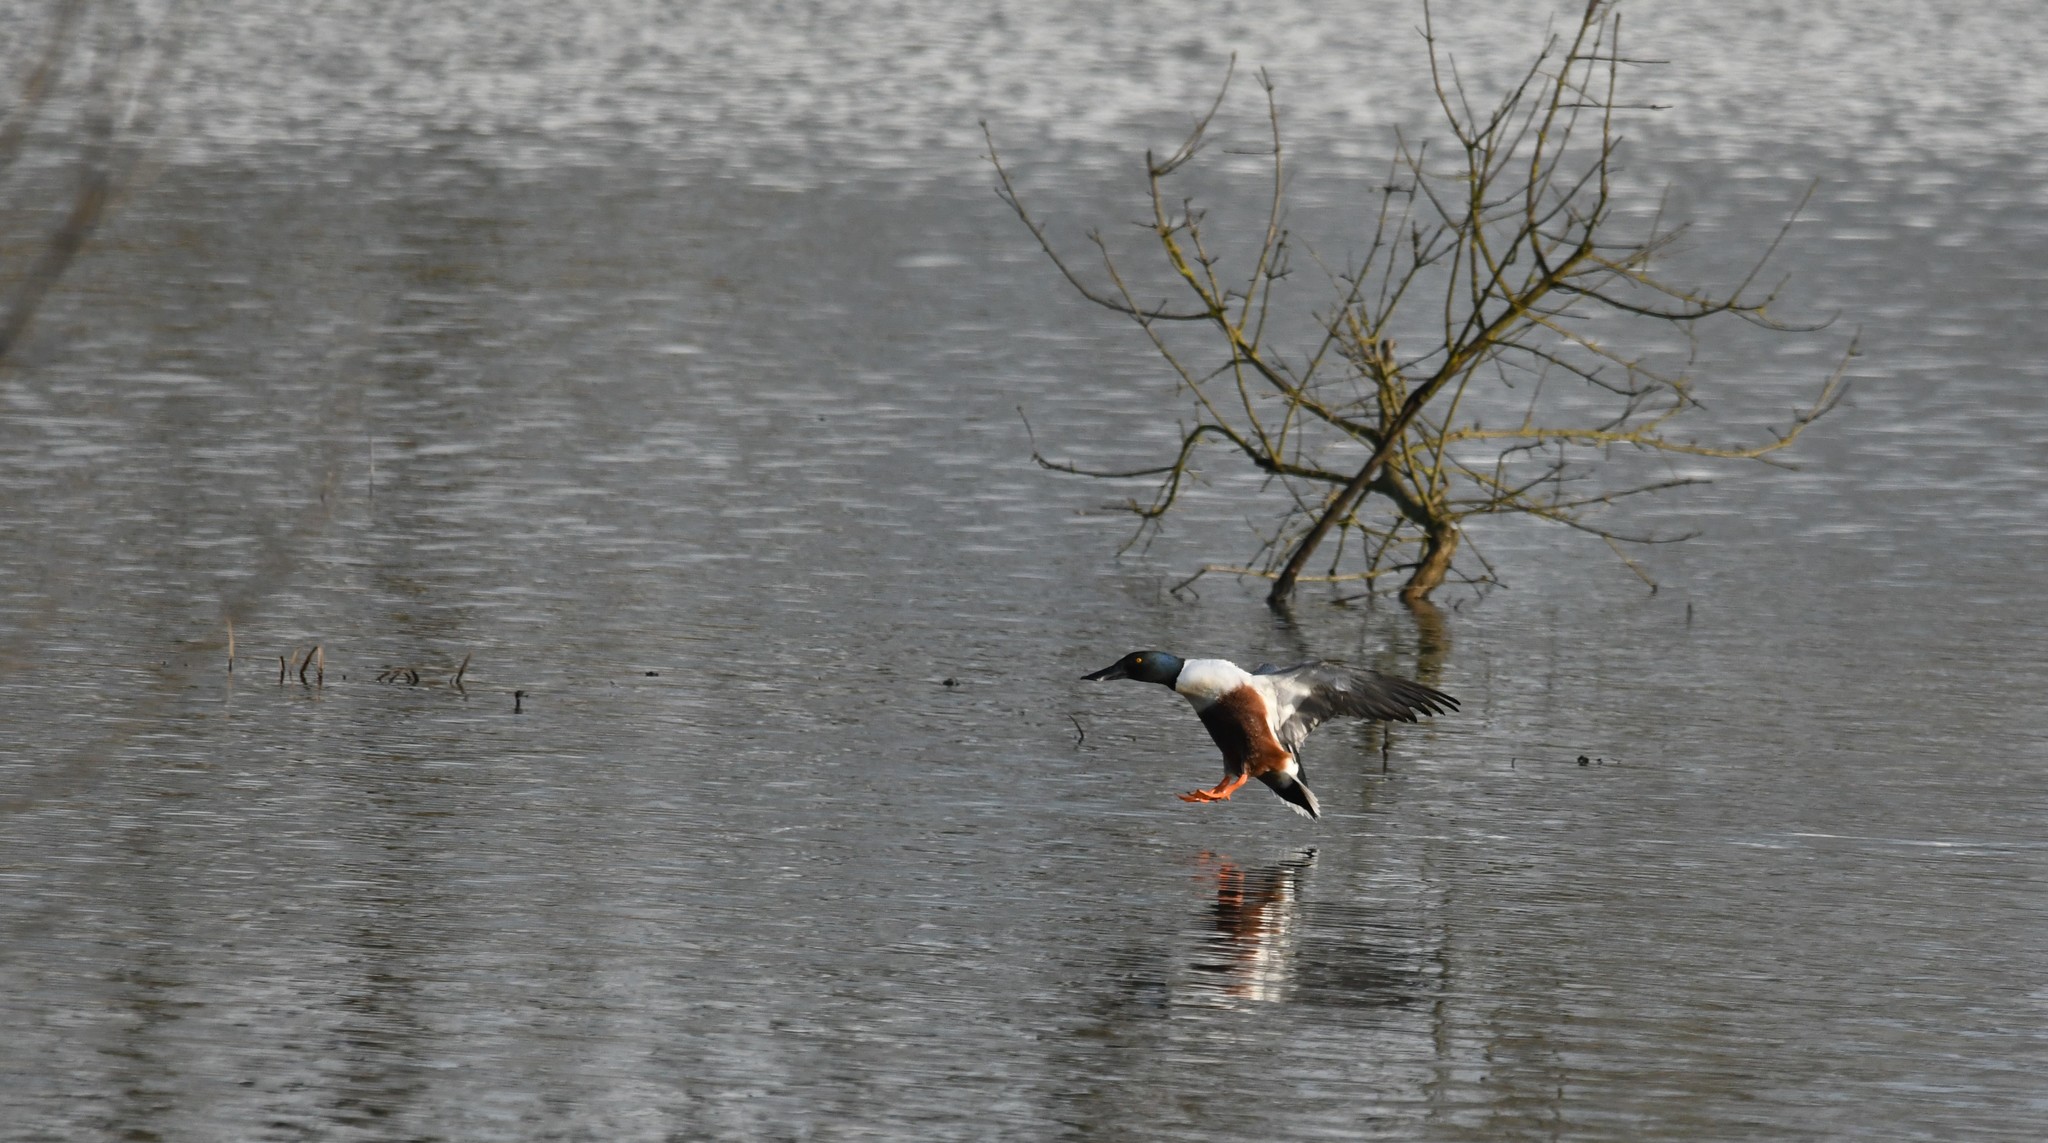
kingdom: Animalia
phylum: Chordata
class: Aves
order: Anseriformes
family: Anatidae
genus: Spatula
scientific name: Spatula clypeata
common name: Northern shoveler
